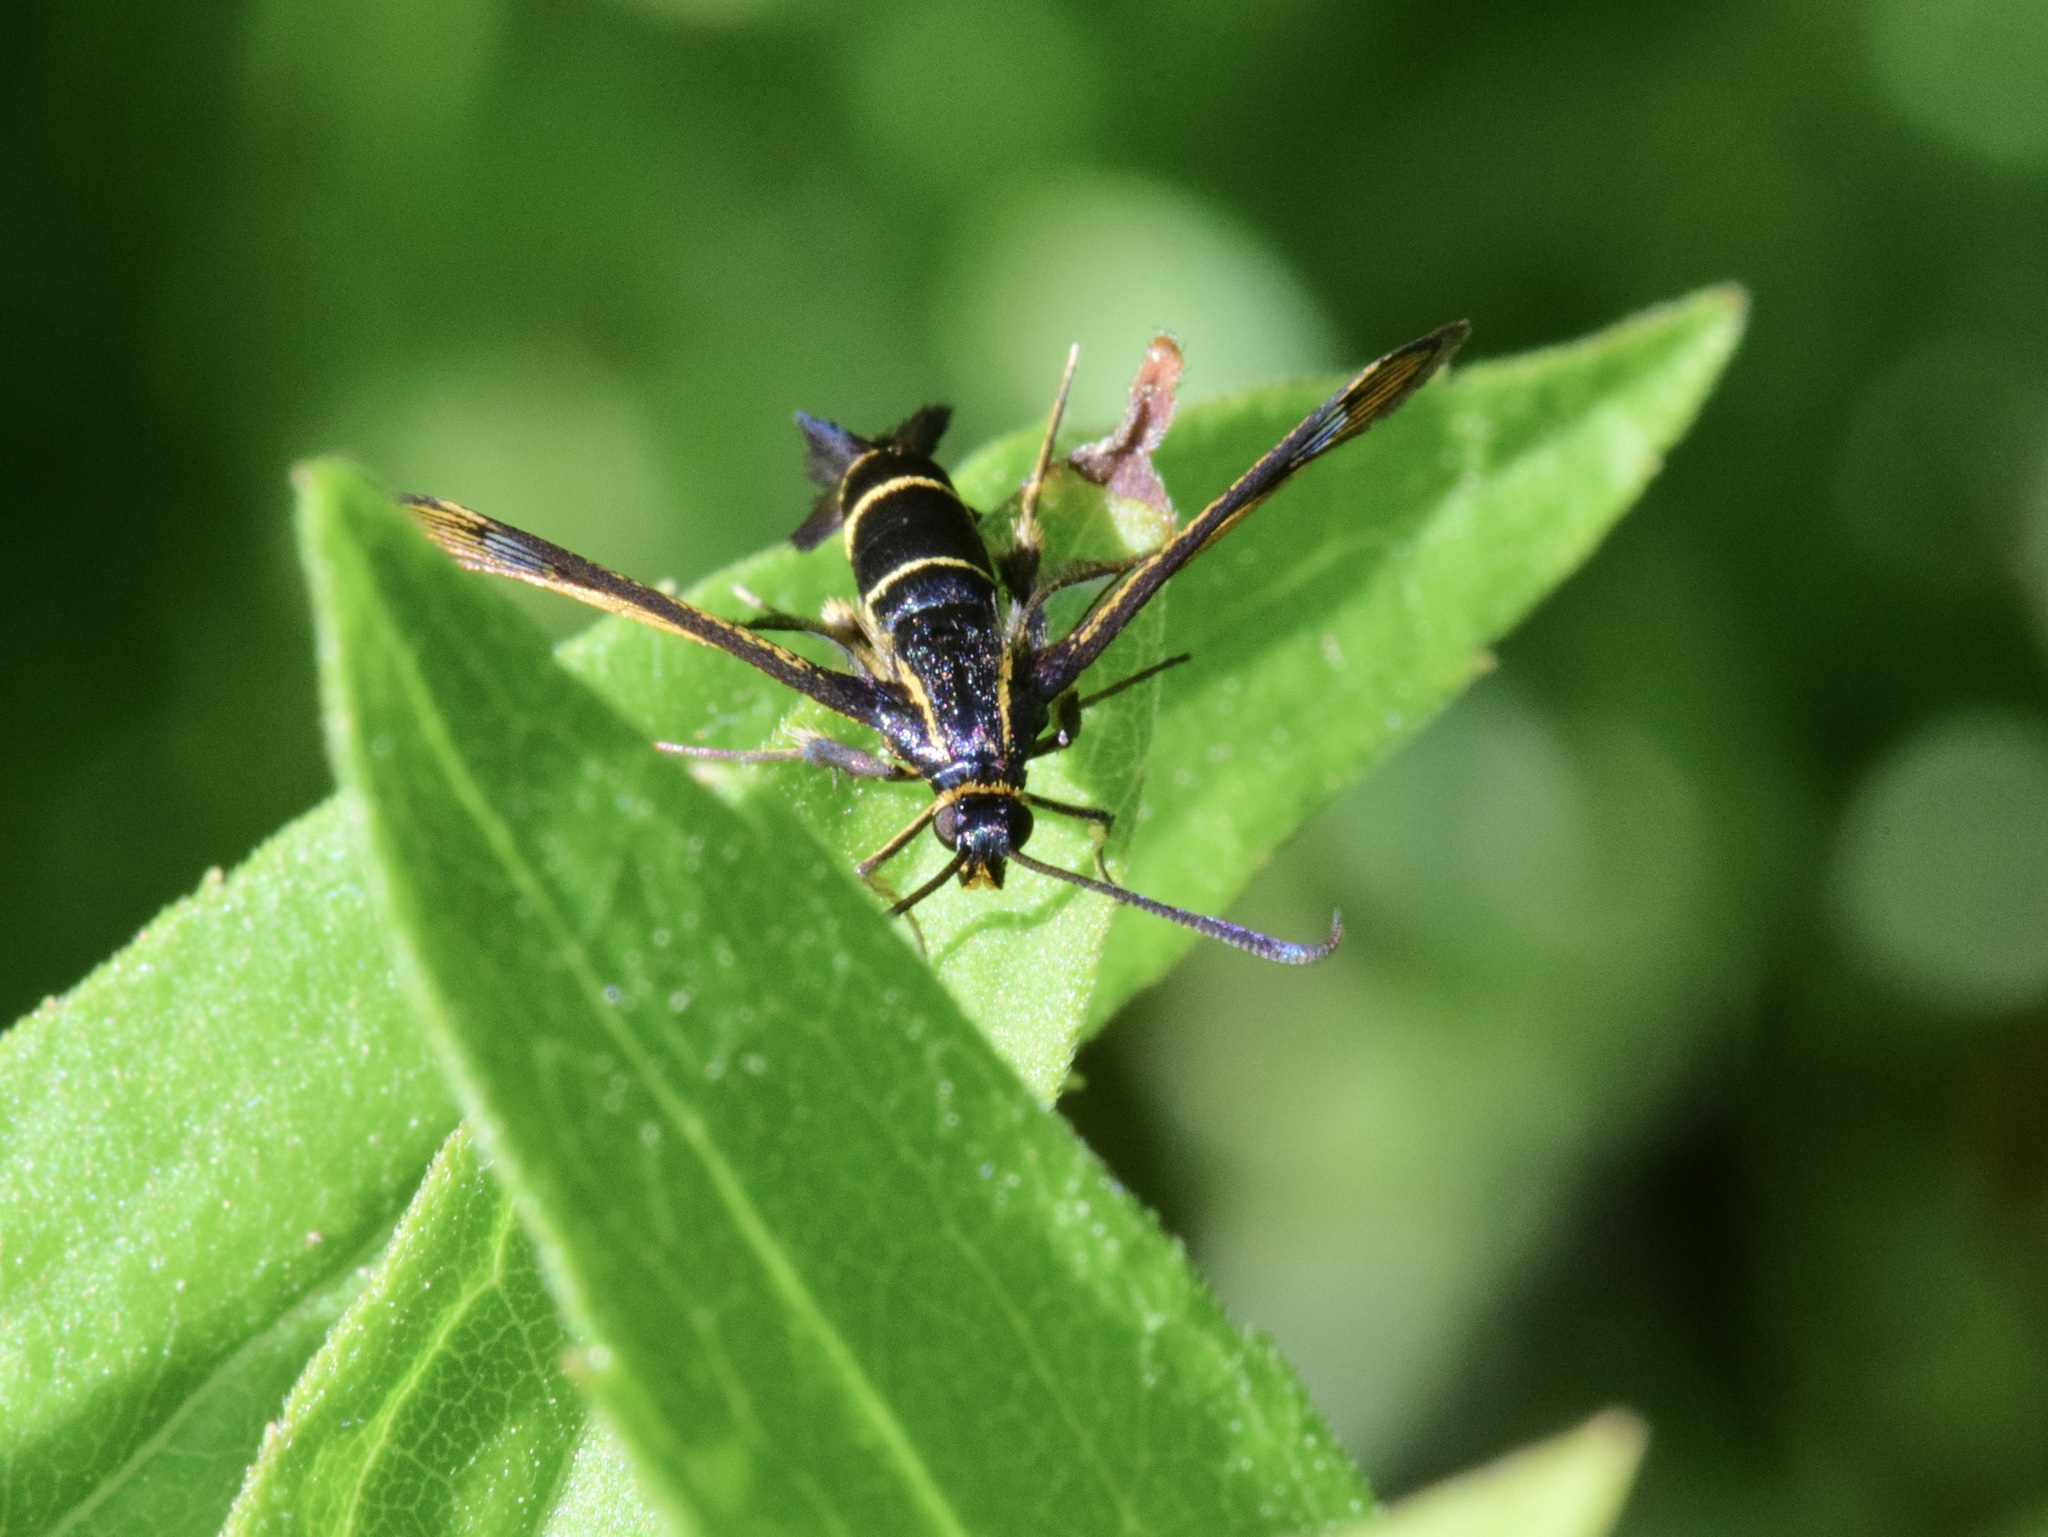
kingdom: Animalia
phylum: Arthropoda
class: Insecta
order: Lepidoptera
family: Sesiidae
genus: Synanthedon
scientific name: Synanthedon tipuliformis
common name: Currant clearwing
